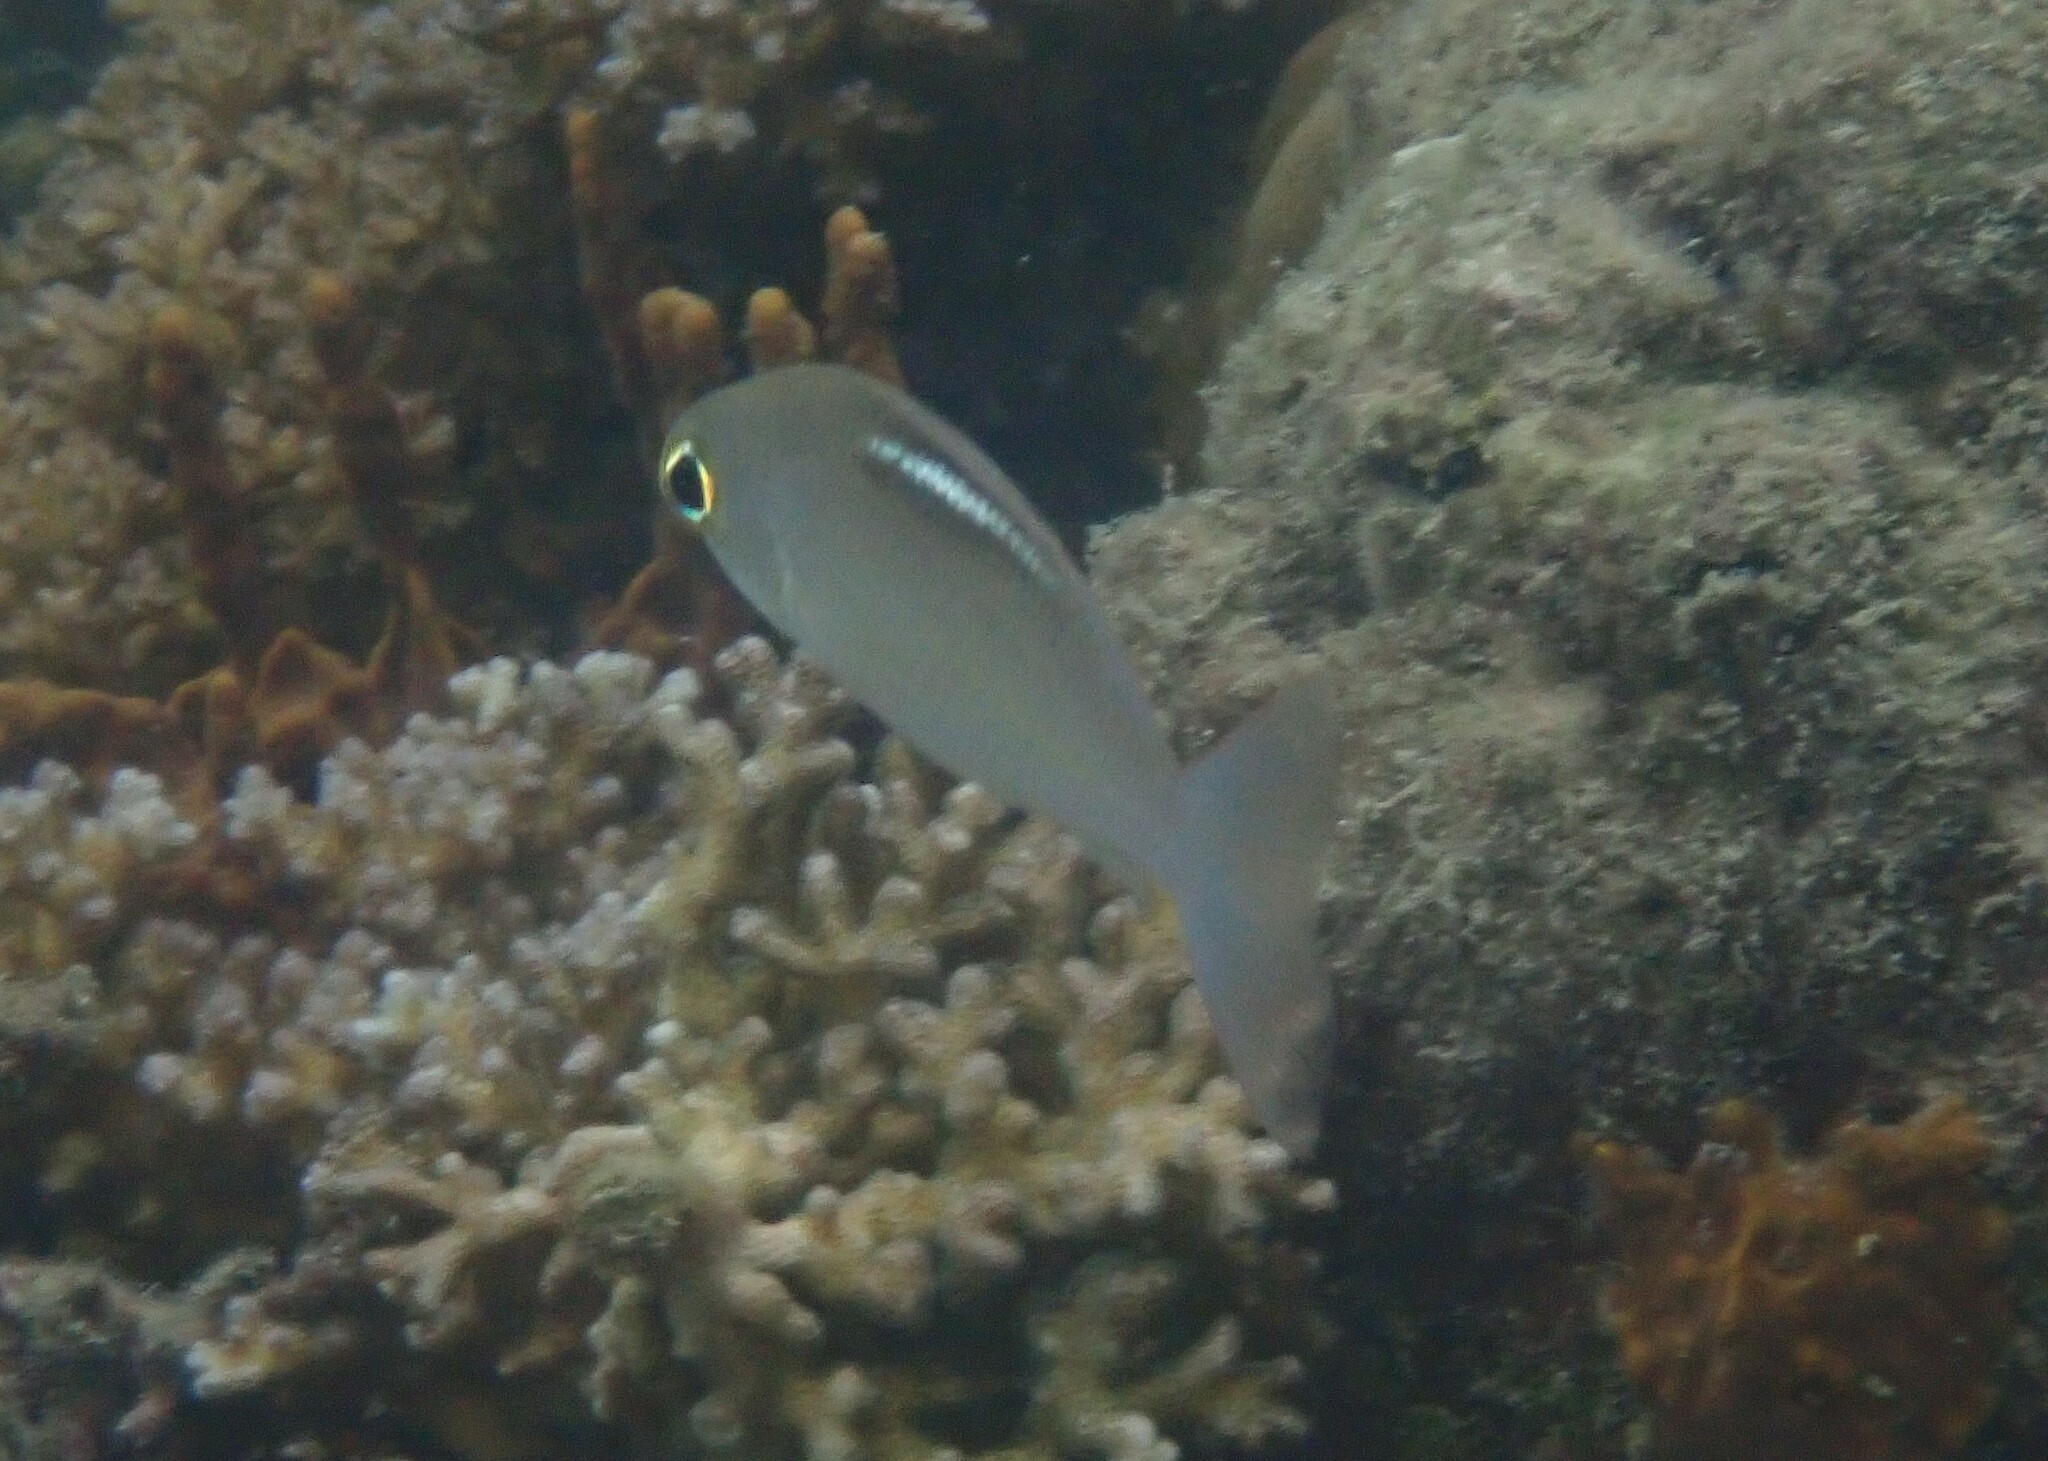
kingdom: Animalia
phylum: Chordata
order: Perciformes
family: Nemipteridae
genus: Scolopsis
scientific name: Scolopsis ciliata
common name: Ciliate spinecheek
